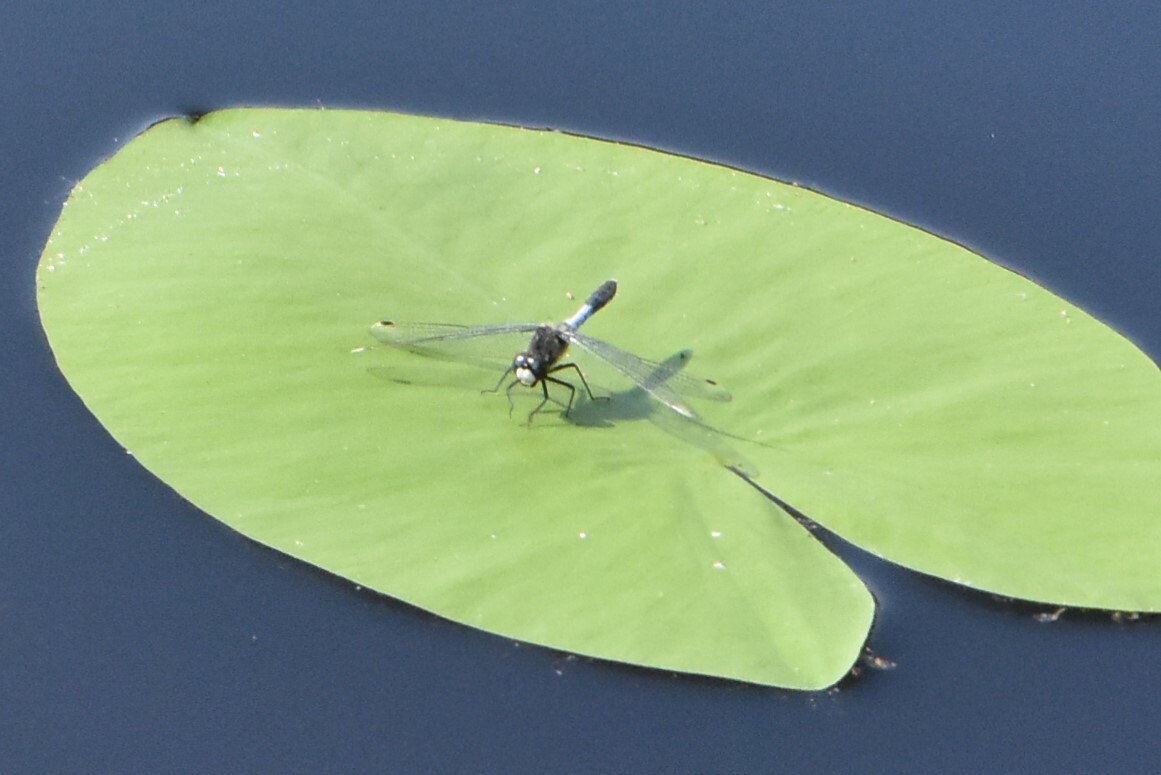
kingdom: Animalia
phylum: Arthropoda
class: Insecta
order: Odonata
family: Libellulidae
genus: Leucorrhinia
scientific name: Leucorrhinia caudalis
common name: Lilypad whiteface
